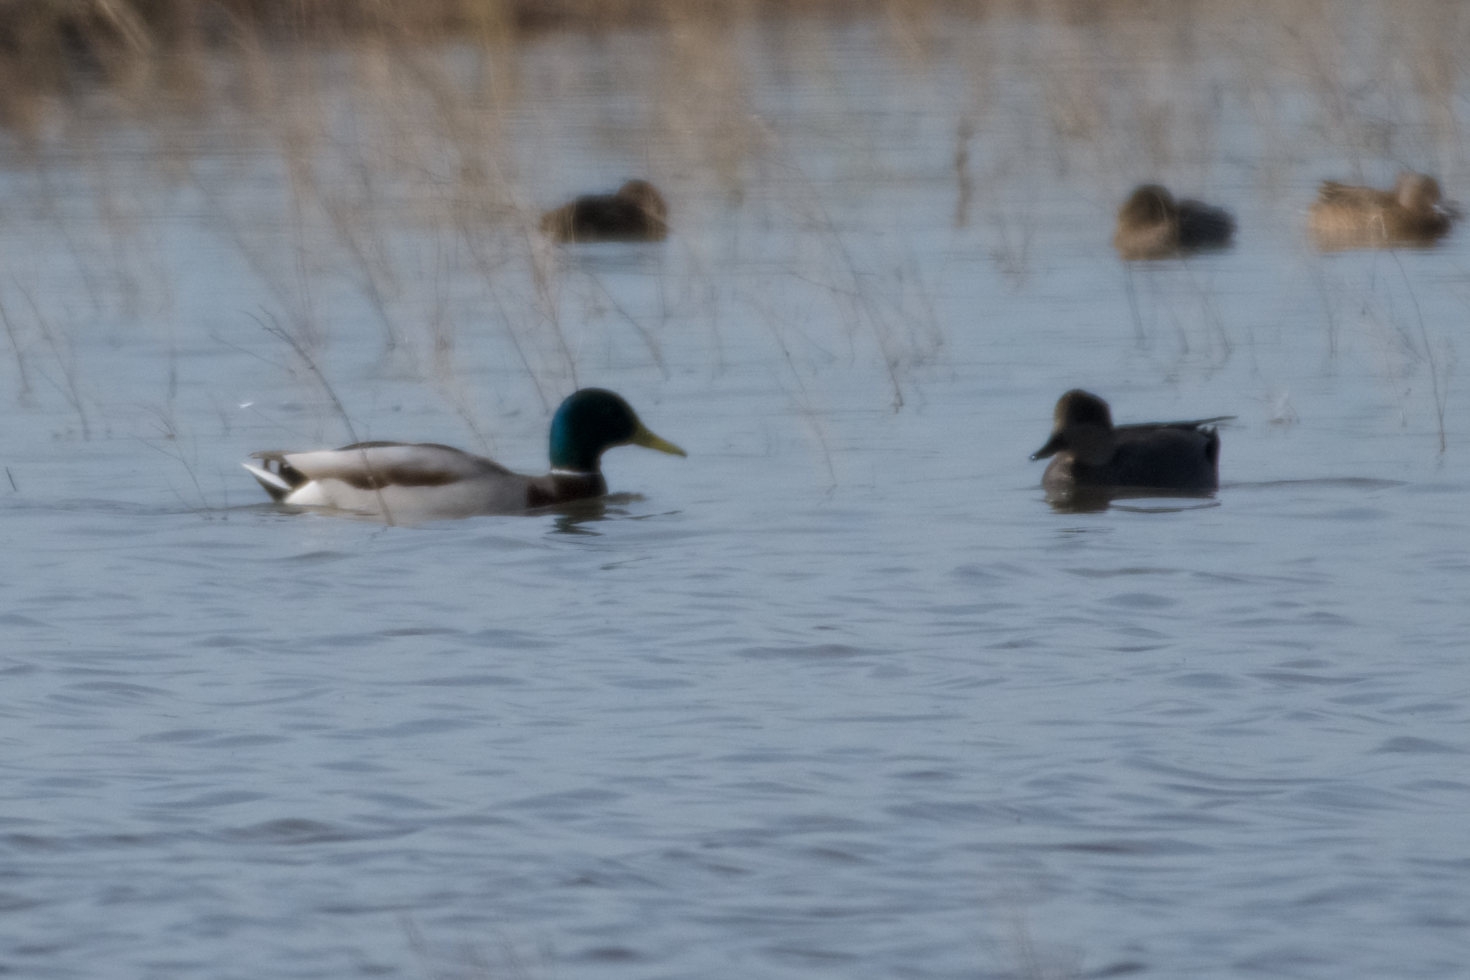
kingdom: Animalia
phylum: Chordata
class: Aves
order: Anseriformes
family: Anatidae
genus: Anas
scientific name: Anas platyrhynchos
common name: Mallard
